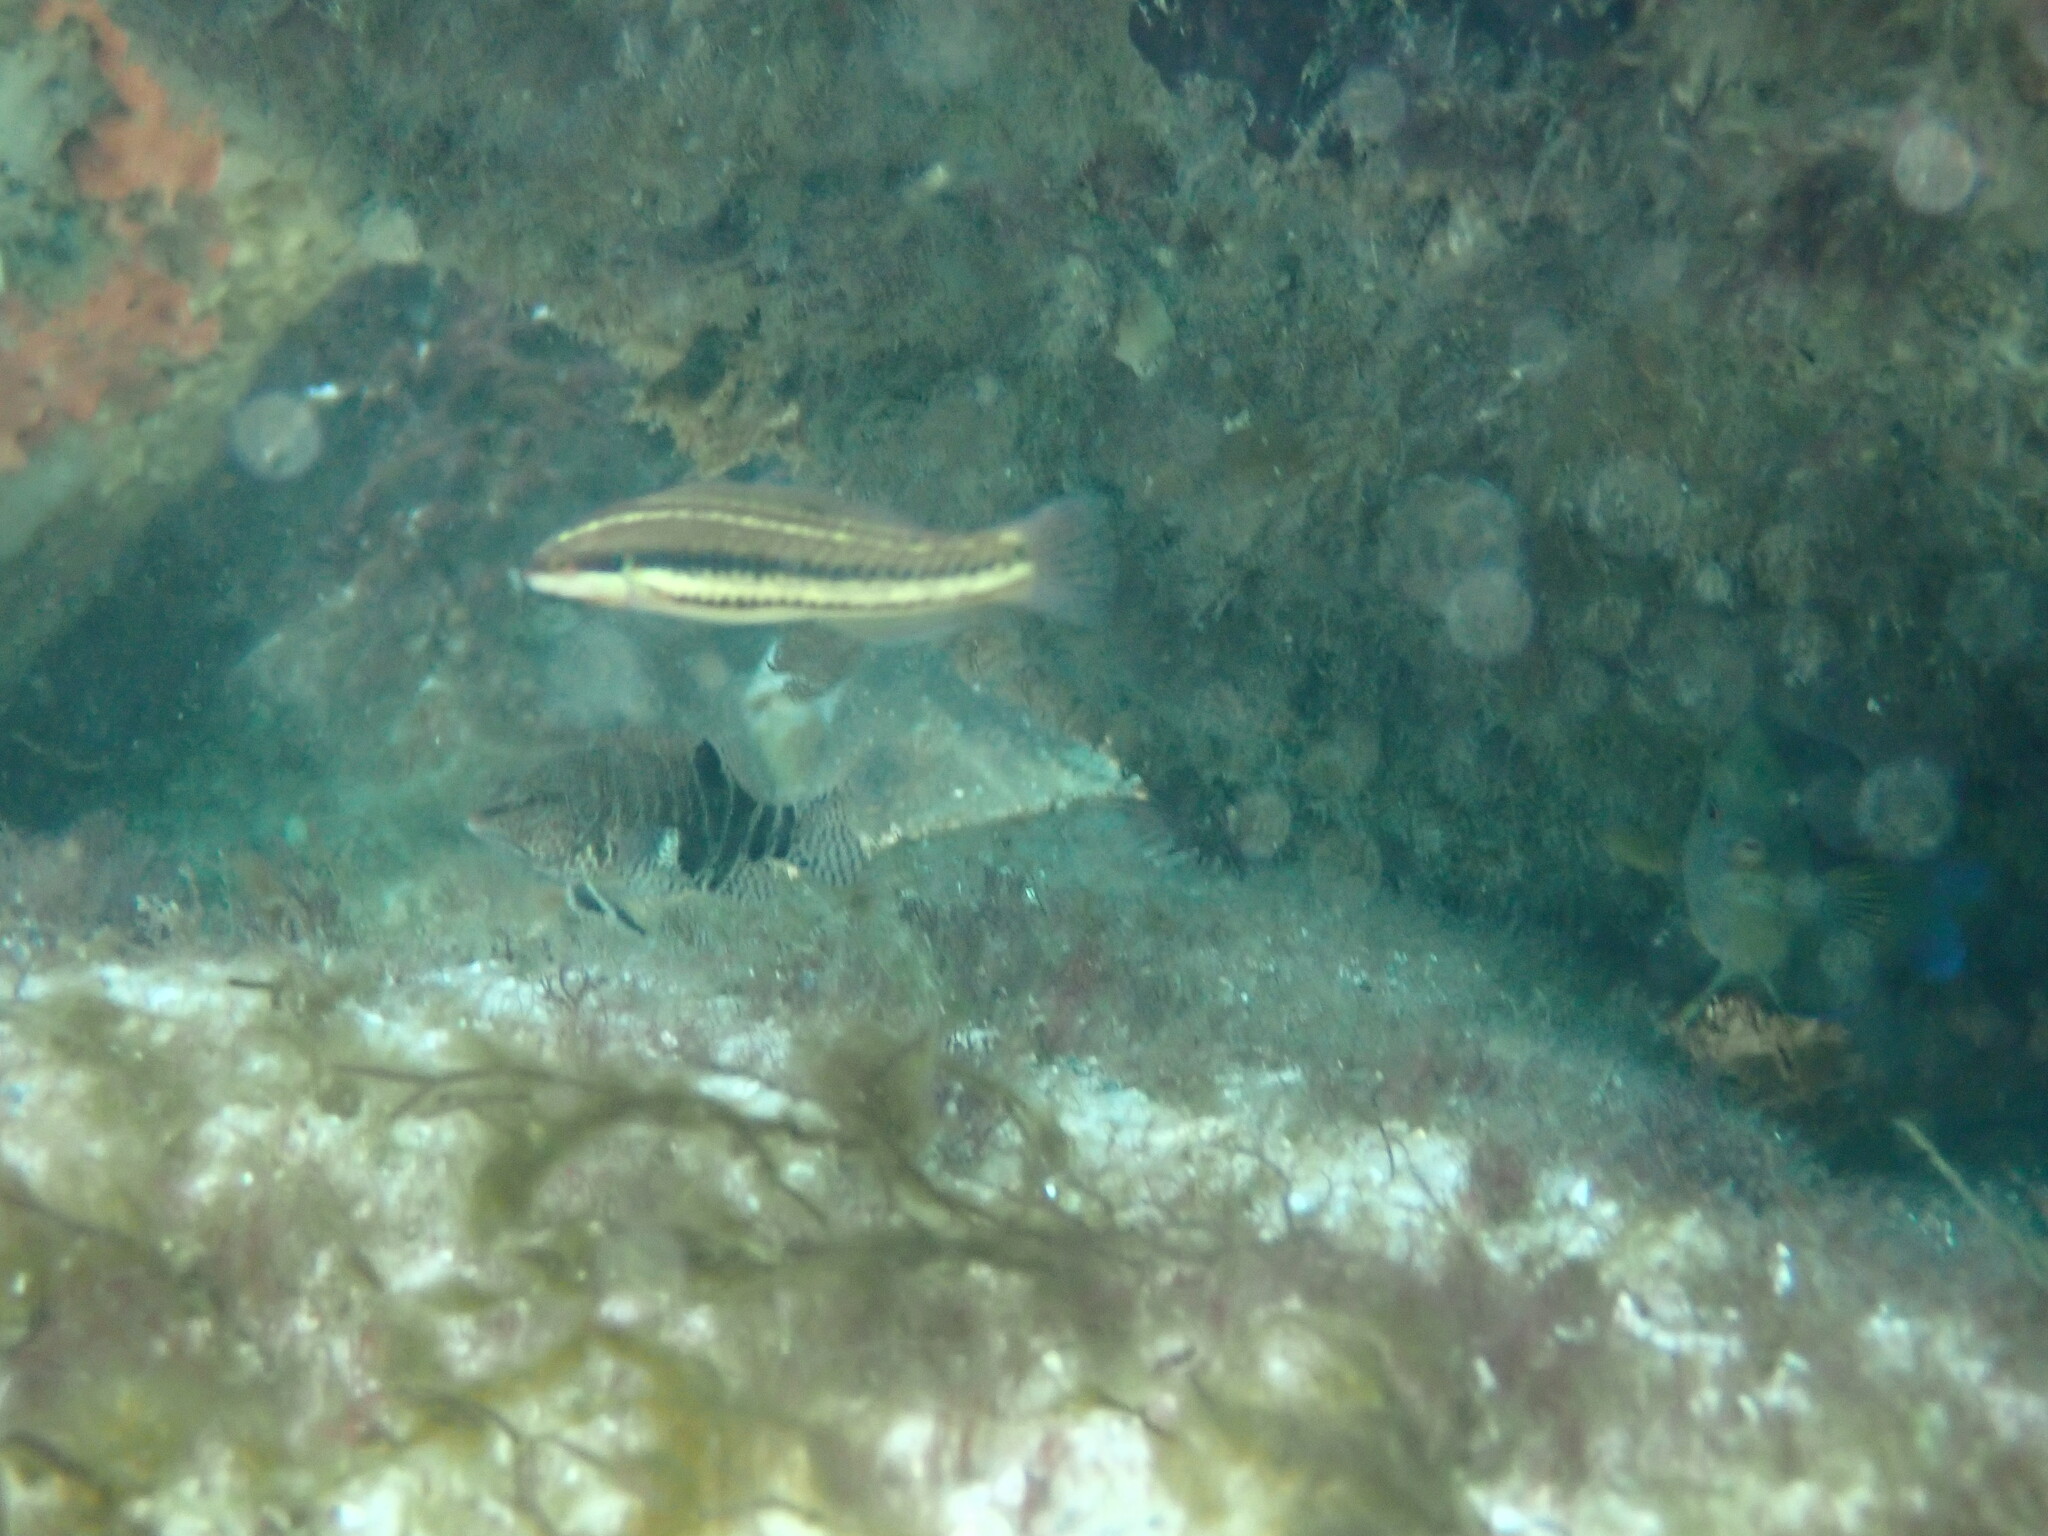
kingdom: Animalia
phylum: Chordata
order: Perciformes
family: Labridae
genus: Halichoeres
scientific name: Halichoeres bivittatus
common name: Slippery dick
